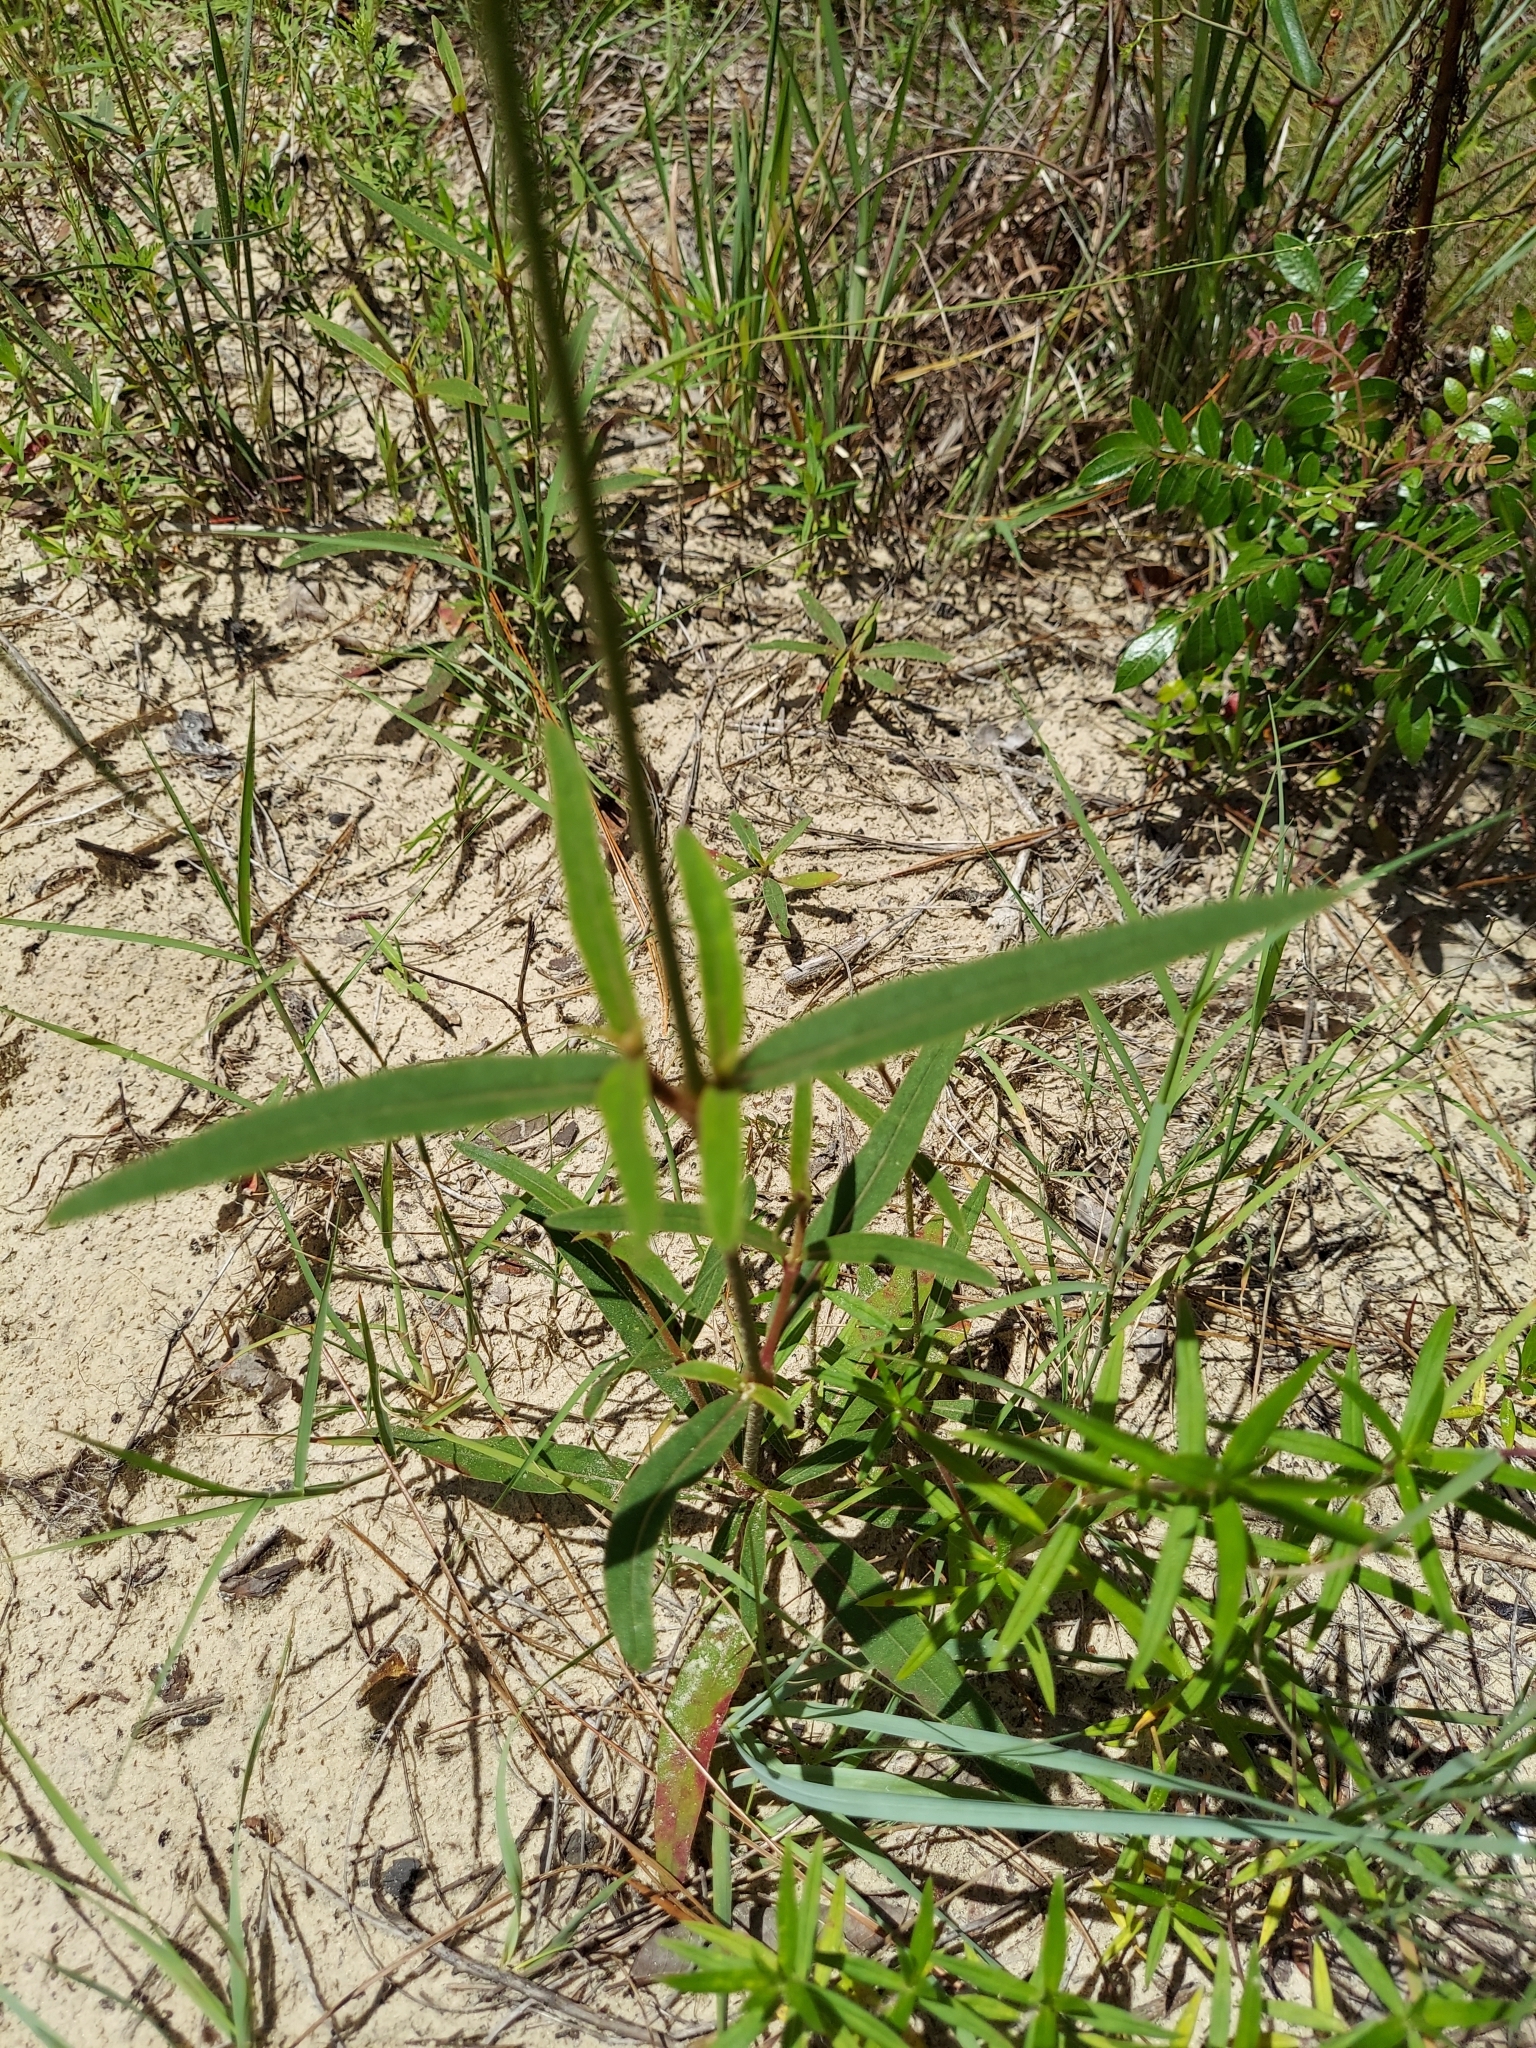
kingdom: Plantae
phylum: Tracheophyta
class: Magnoliopsida
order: Caryophyllales
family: Amaranthaceae
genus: Froelichia
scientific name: Froelichia floridana
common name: Florida snake-cotton
